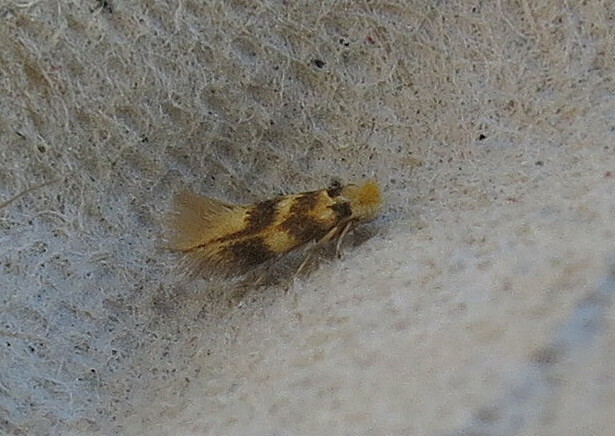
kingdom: Animalia
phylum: Arthropoda
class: Insecta
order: Lepidoptera
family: Bucculatricidae
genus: Bucculatrix
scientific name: Bucculatrix thoracella
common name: Lime bent-wing
